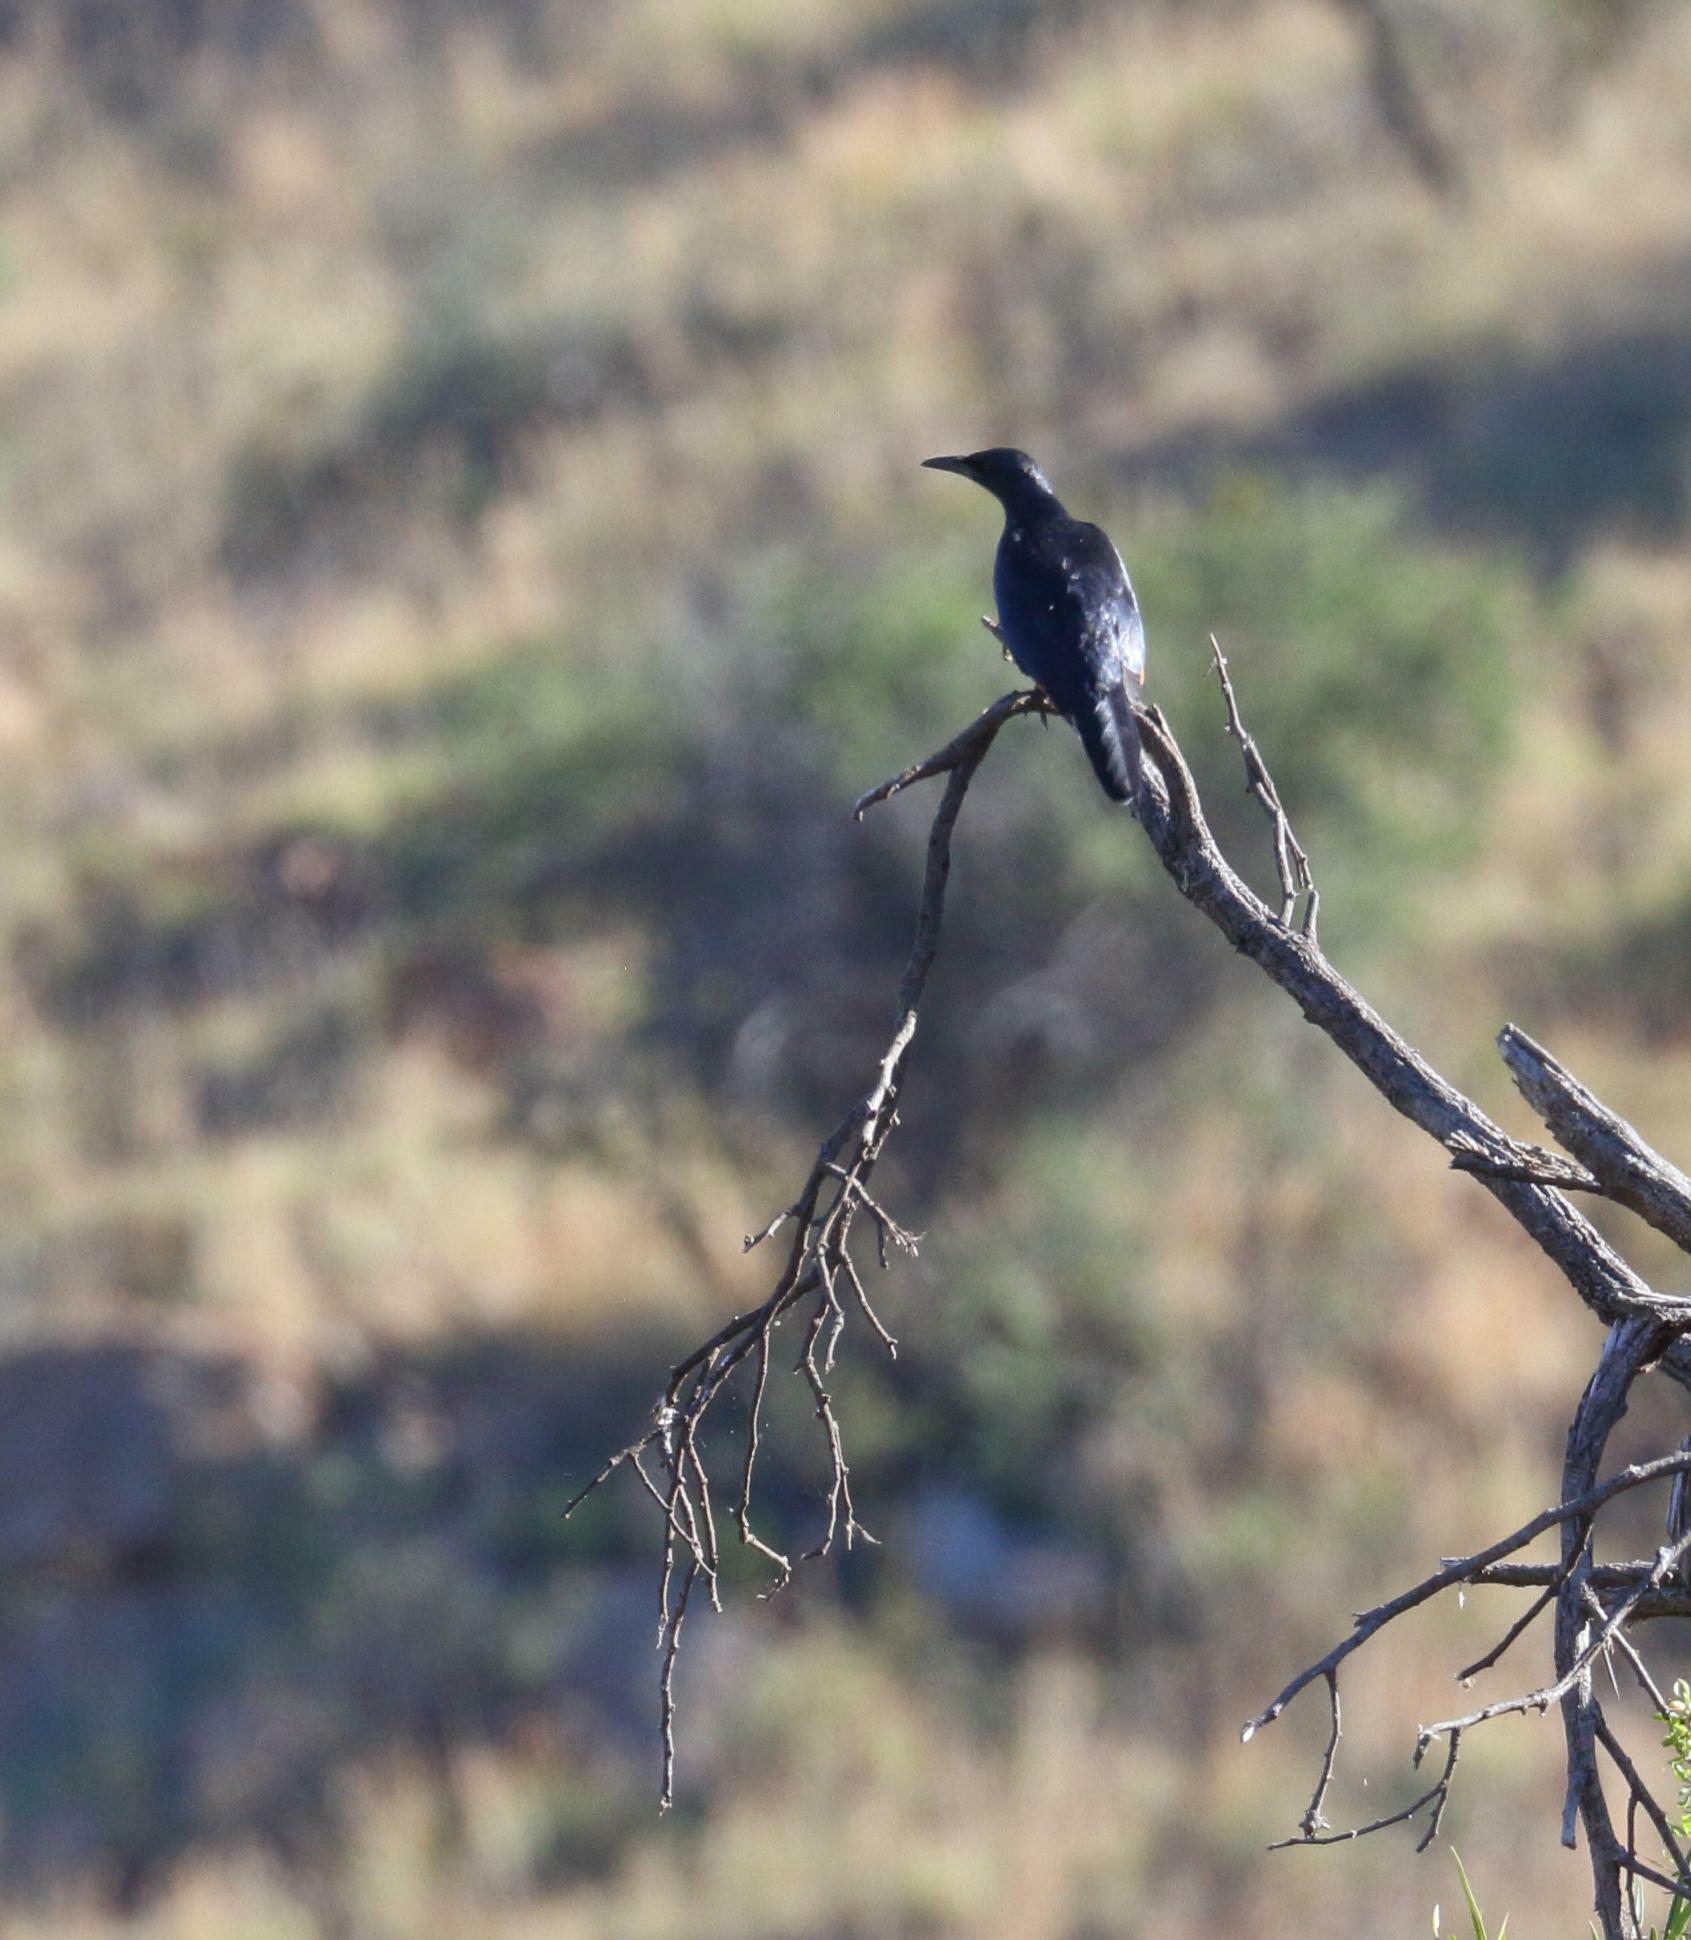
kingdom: Animalia
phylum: Chordata
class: Aves
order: Passeriformes
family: Sturnidae
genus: Onychognathus
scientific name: Onychognathus morio
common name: Red-winged starling
